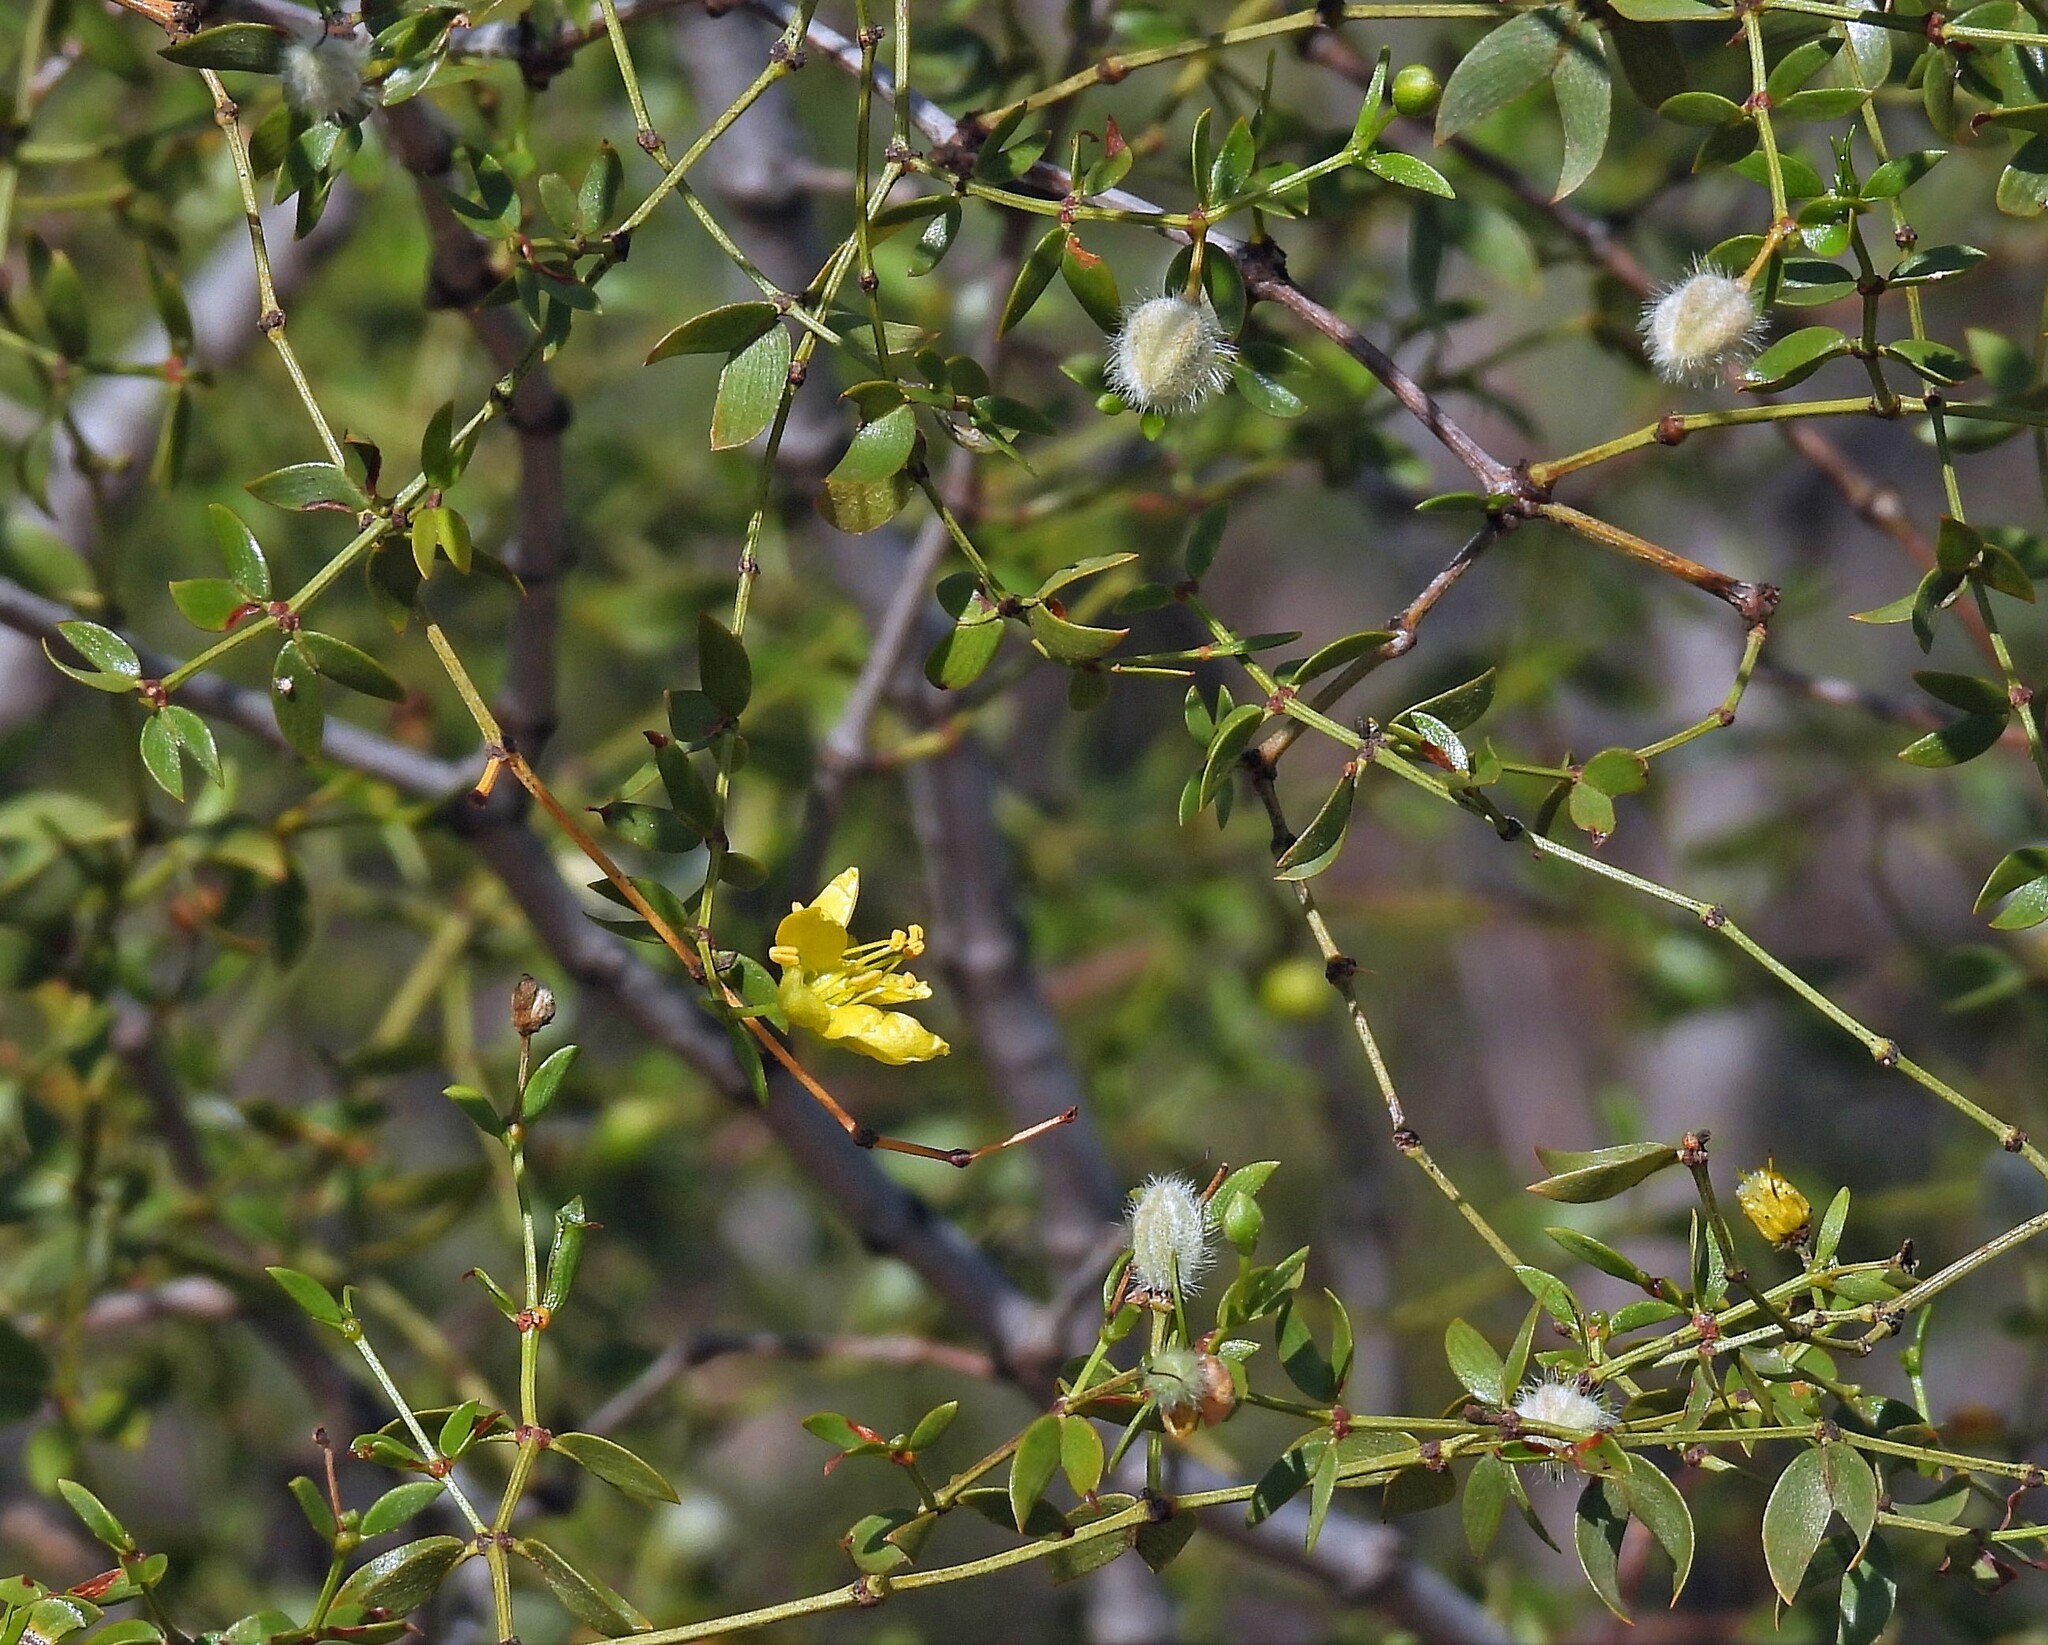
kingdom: Plantae
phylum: Tracheophyta
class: Magnoliopsida
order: Zygophyllales
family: Zygophyllaceae
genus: Larrea
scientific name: Larrea divaricata
